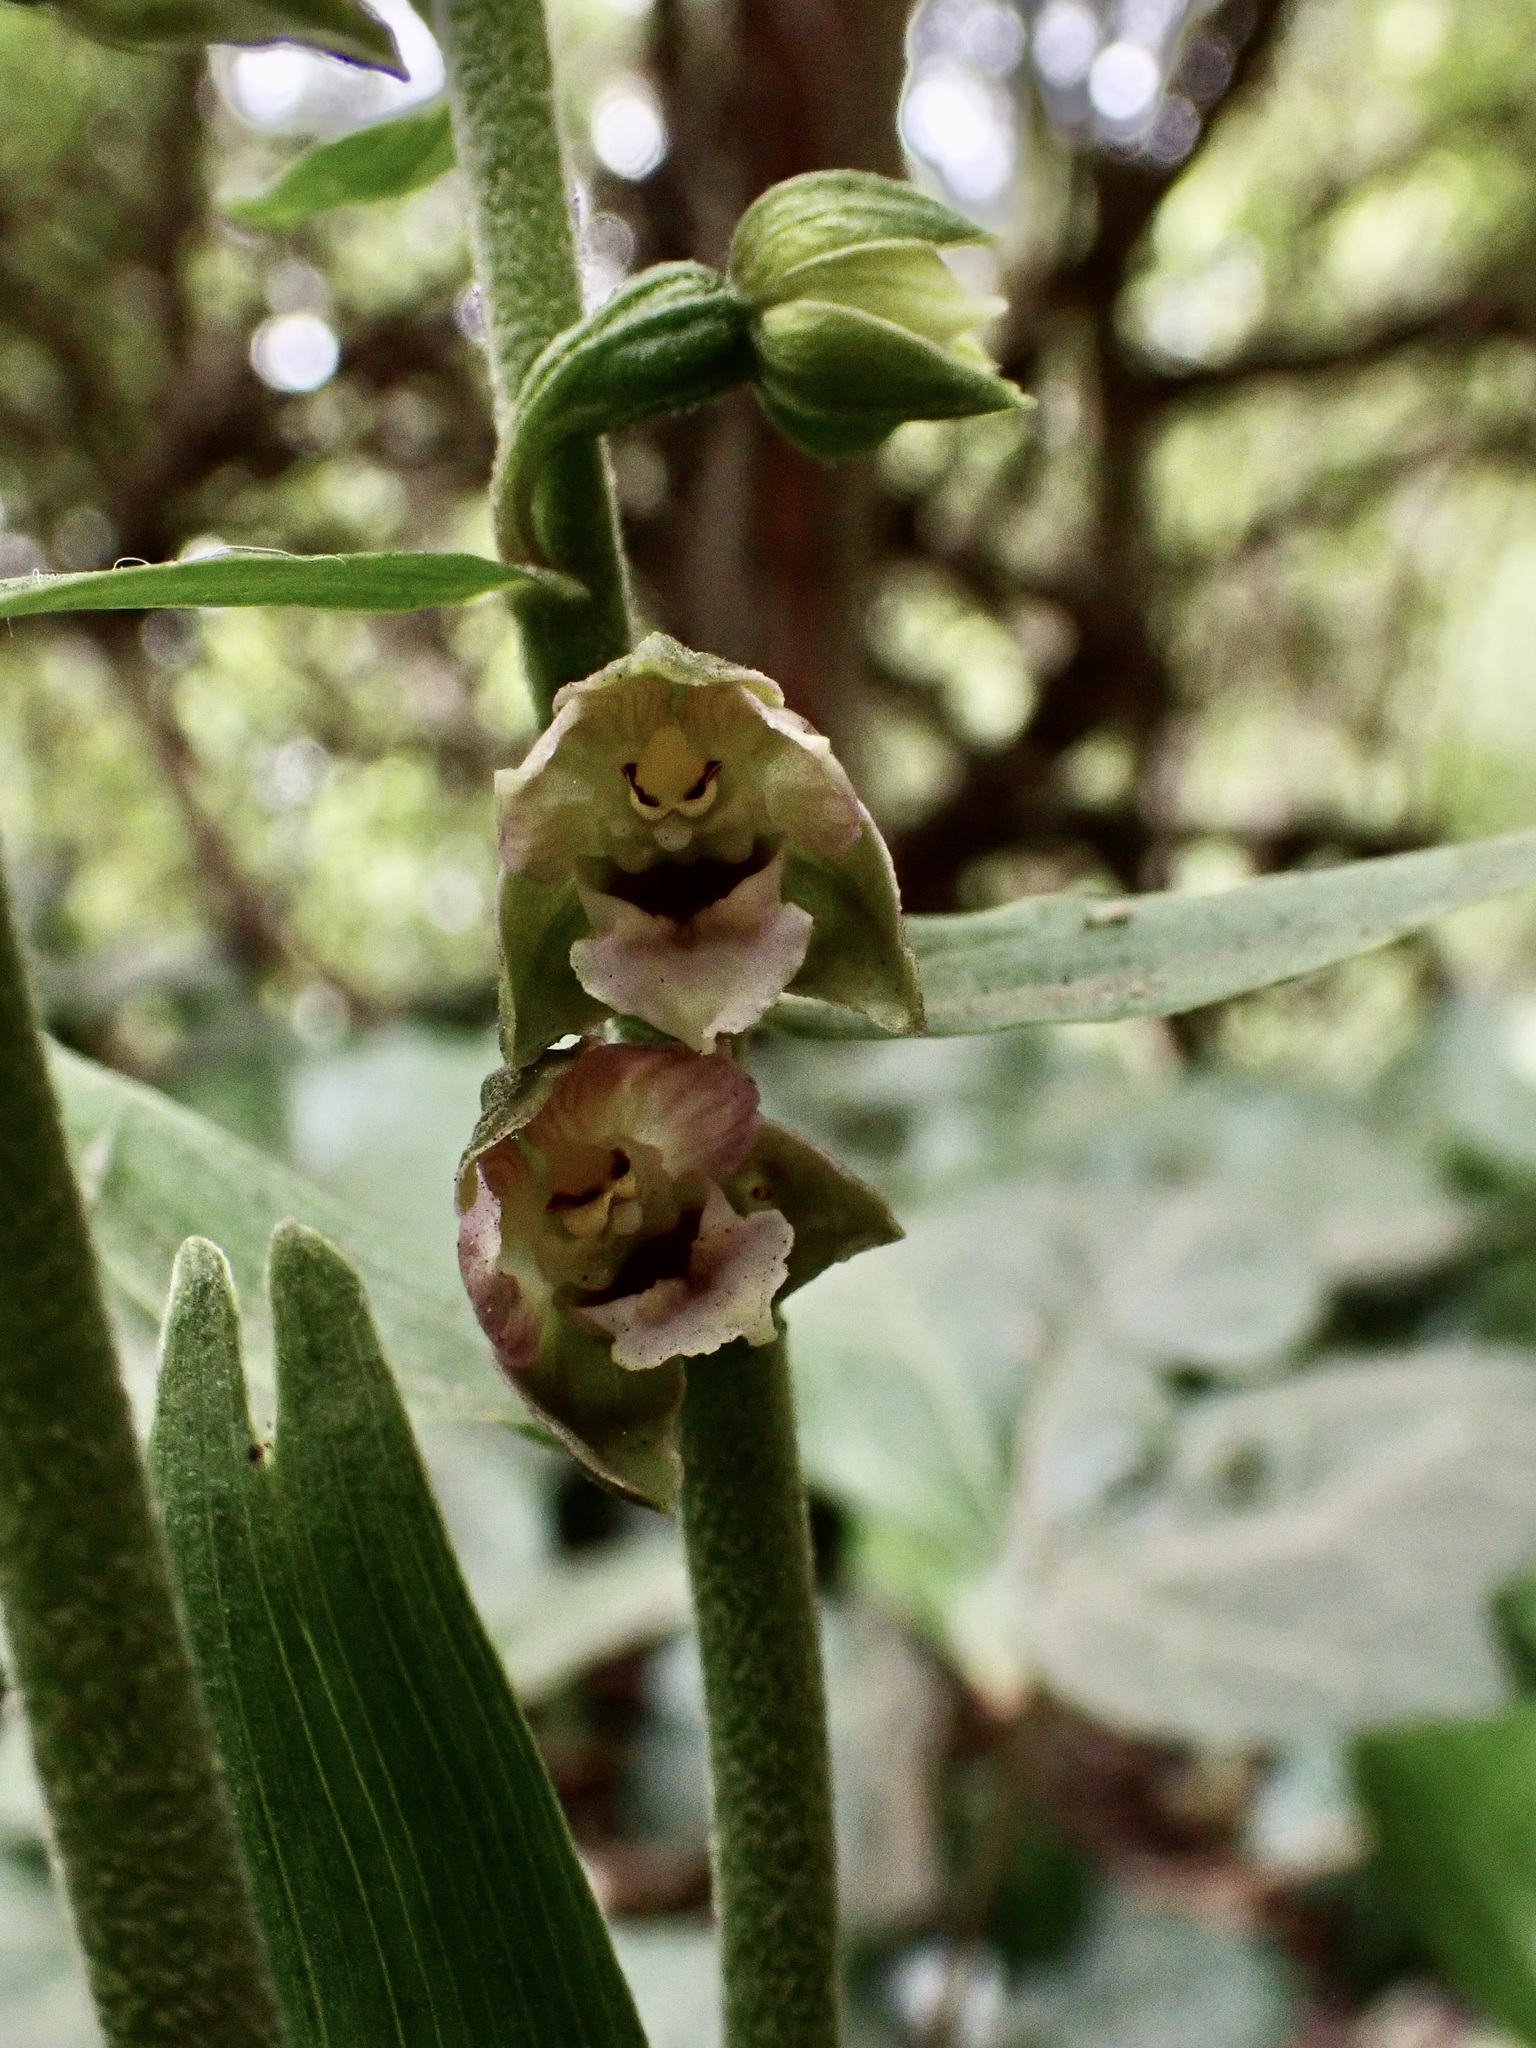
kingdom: Plantae
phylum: Tracheophyta
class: Liliopsida
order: Asparagales
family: Orchidaceae
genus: Epipactis
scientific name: Epipactis helleborine
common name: Broad-leaved helleborine
